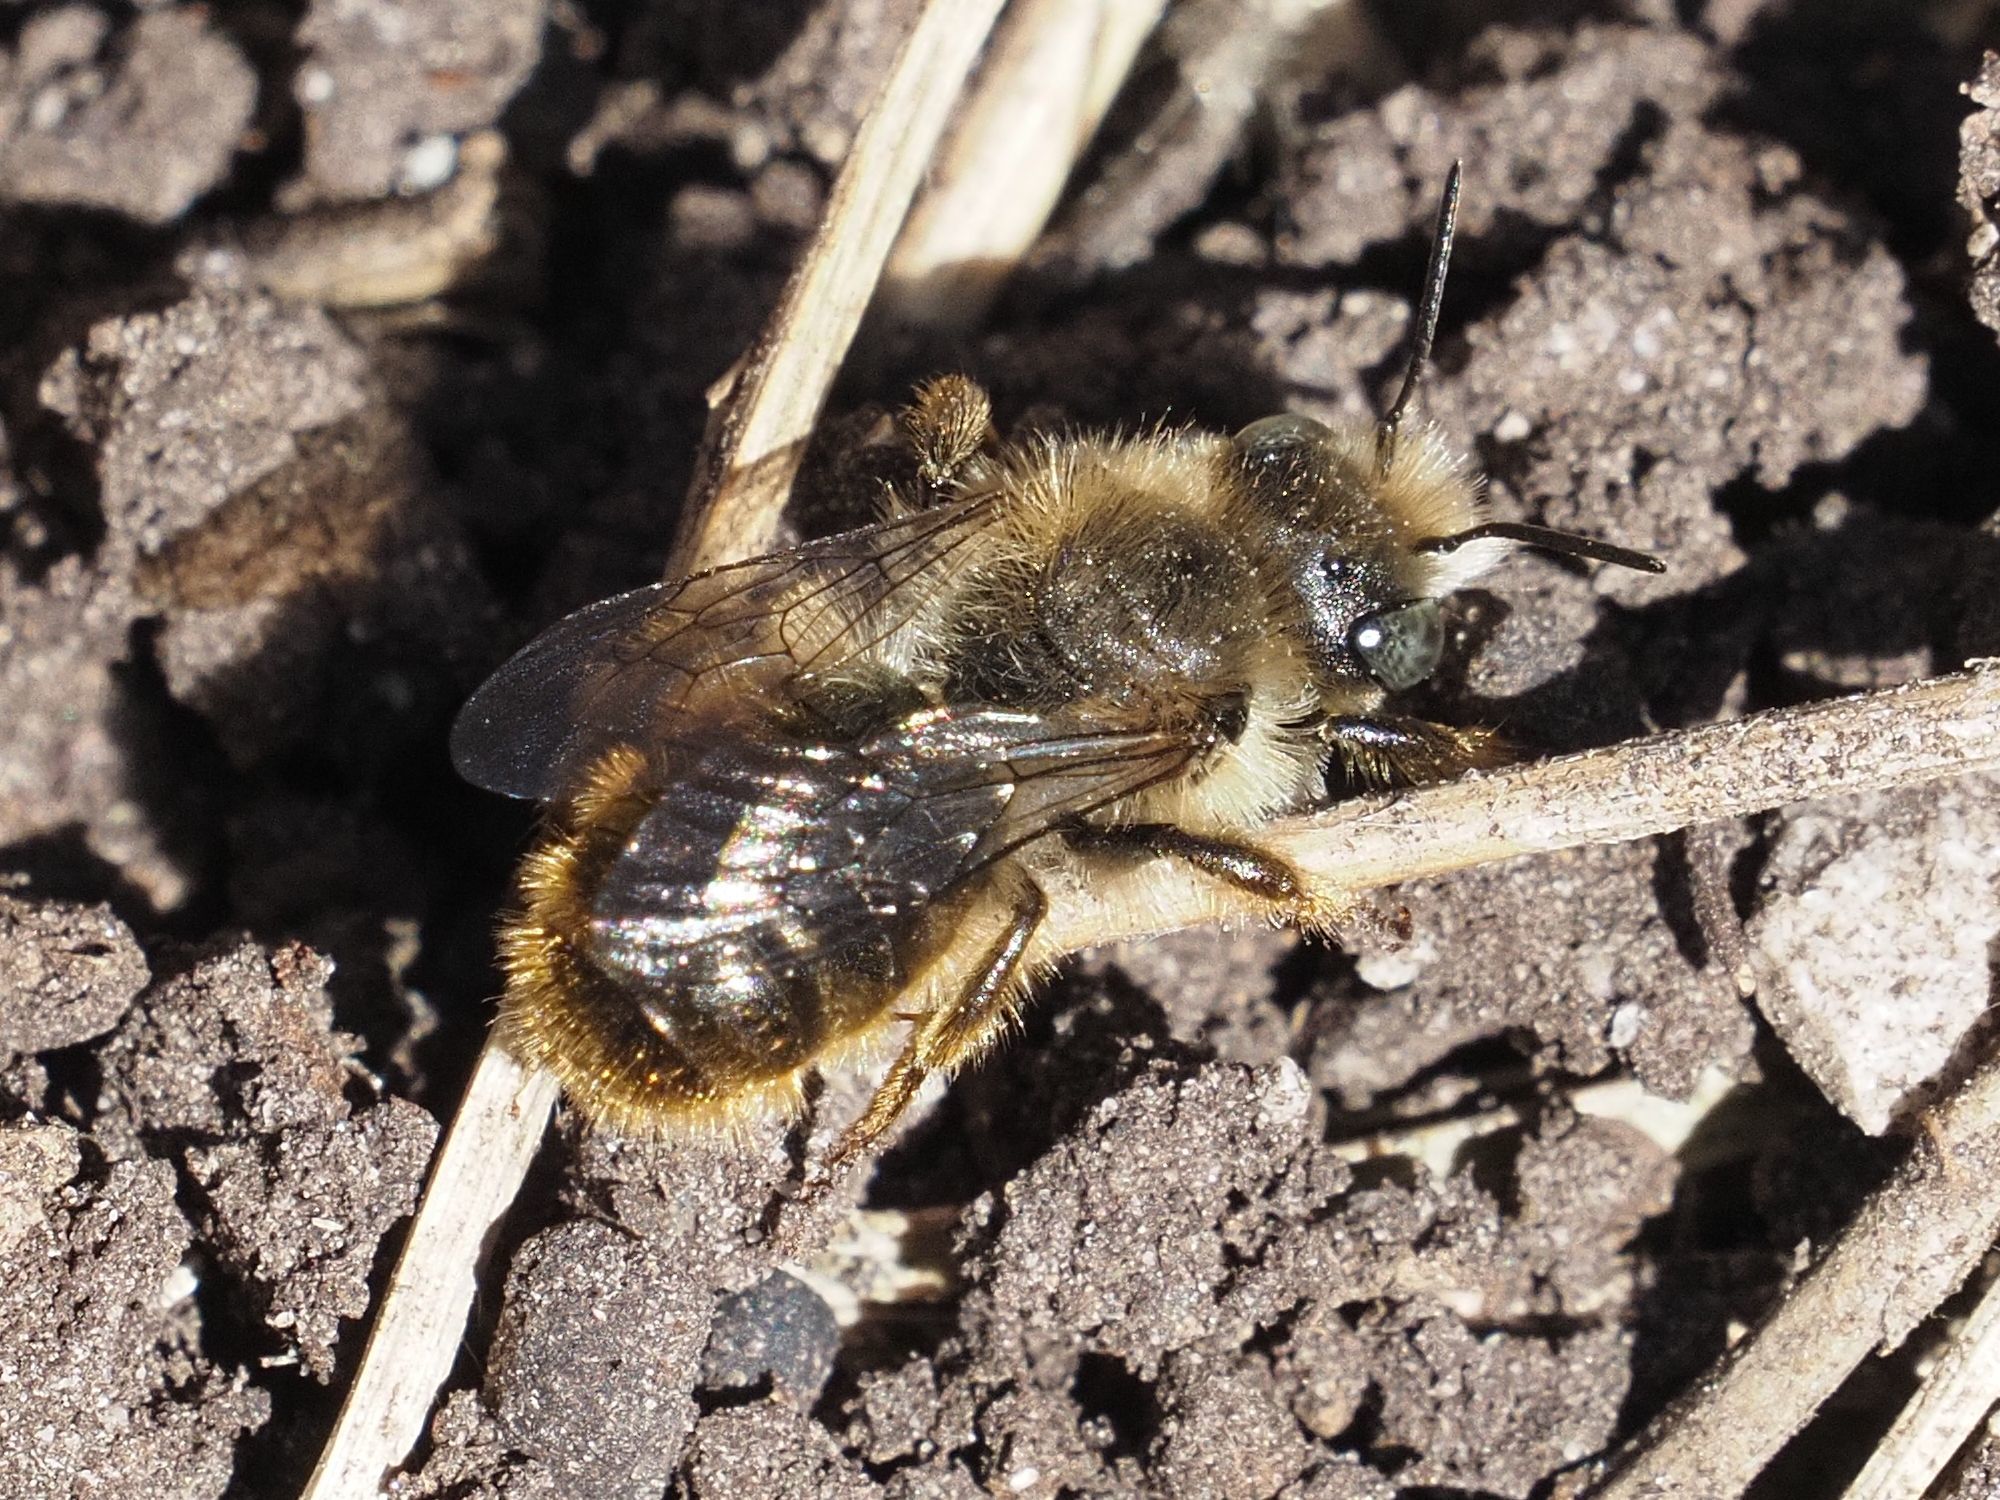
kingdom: Animalia
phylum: Arthropoda
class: Insecta
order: Hymenoptera
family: Megachilidae
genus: Osmia
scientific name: Osmia bicolor
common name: Red-tailed mason bee
